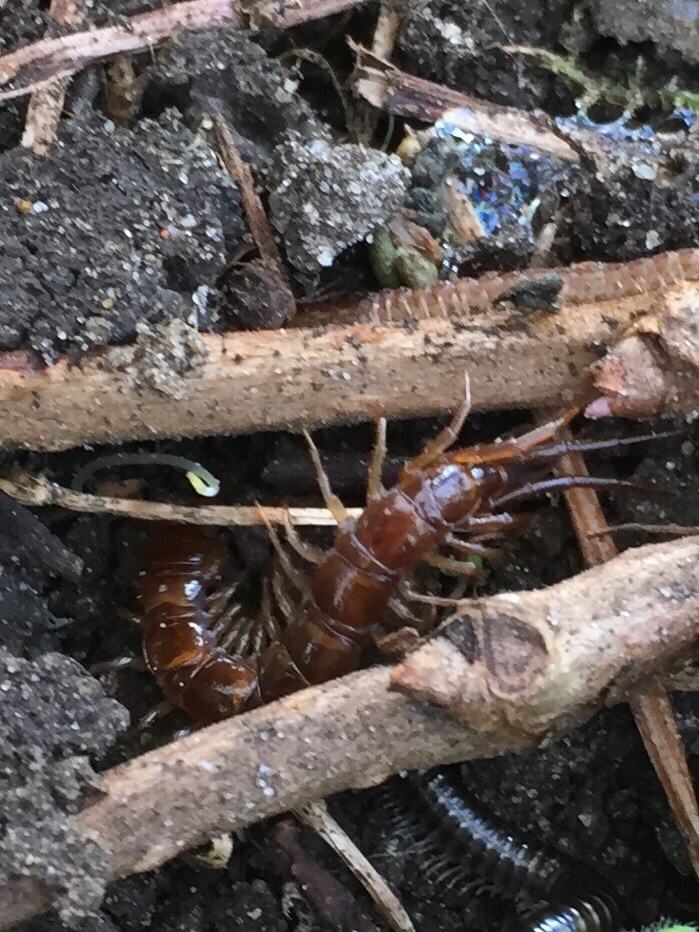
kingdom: Animalia
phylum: Arthropoda
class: Chilopoda
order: Lithobiomorpha
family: Lithobiidae
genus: Lithobius
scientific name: Lithobius forficatus
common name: Centipede
